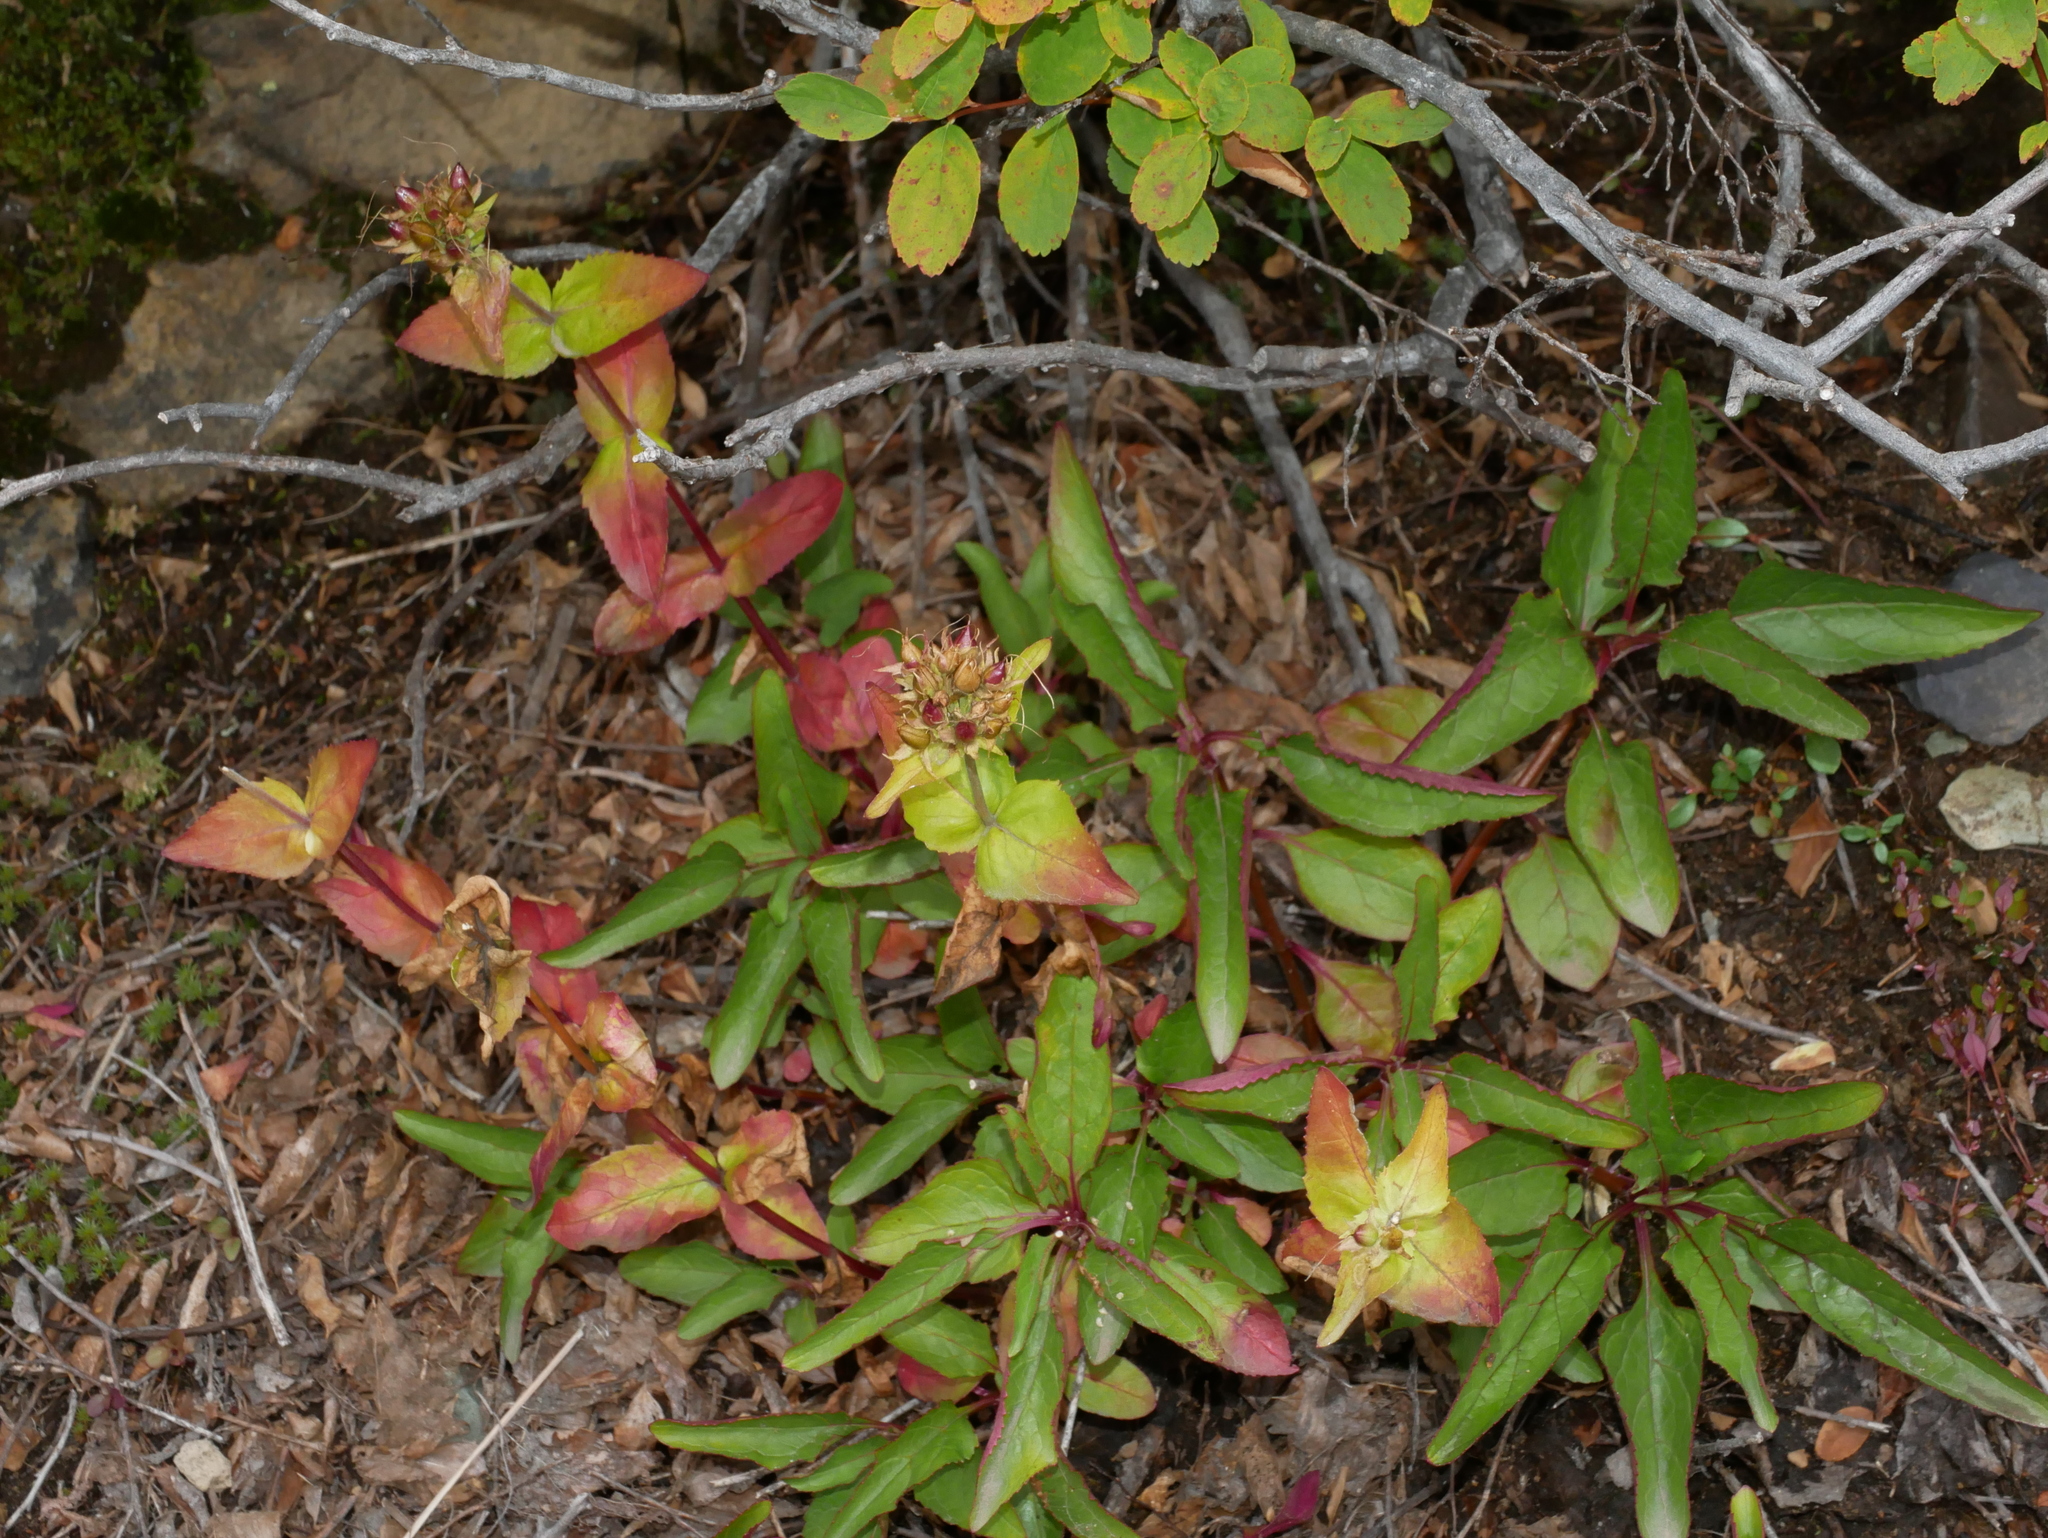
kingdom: Plantae
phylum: Tracheophyta
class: Magnoliopsida
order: Lamiales
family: Plantaginaceae
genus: Penstemon
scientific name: Penstemon serrulatus
